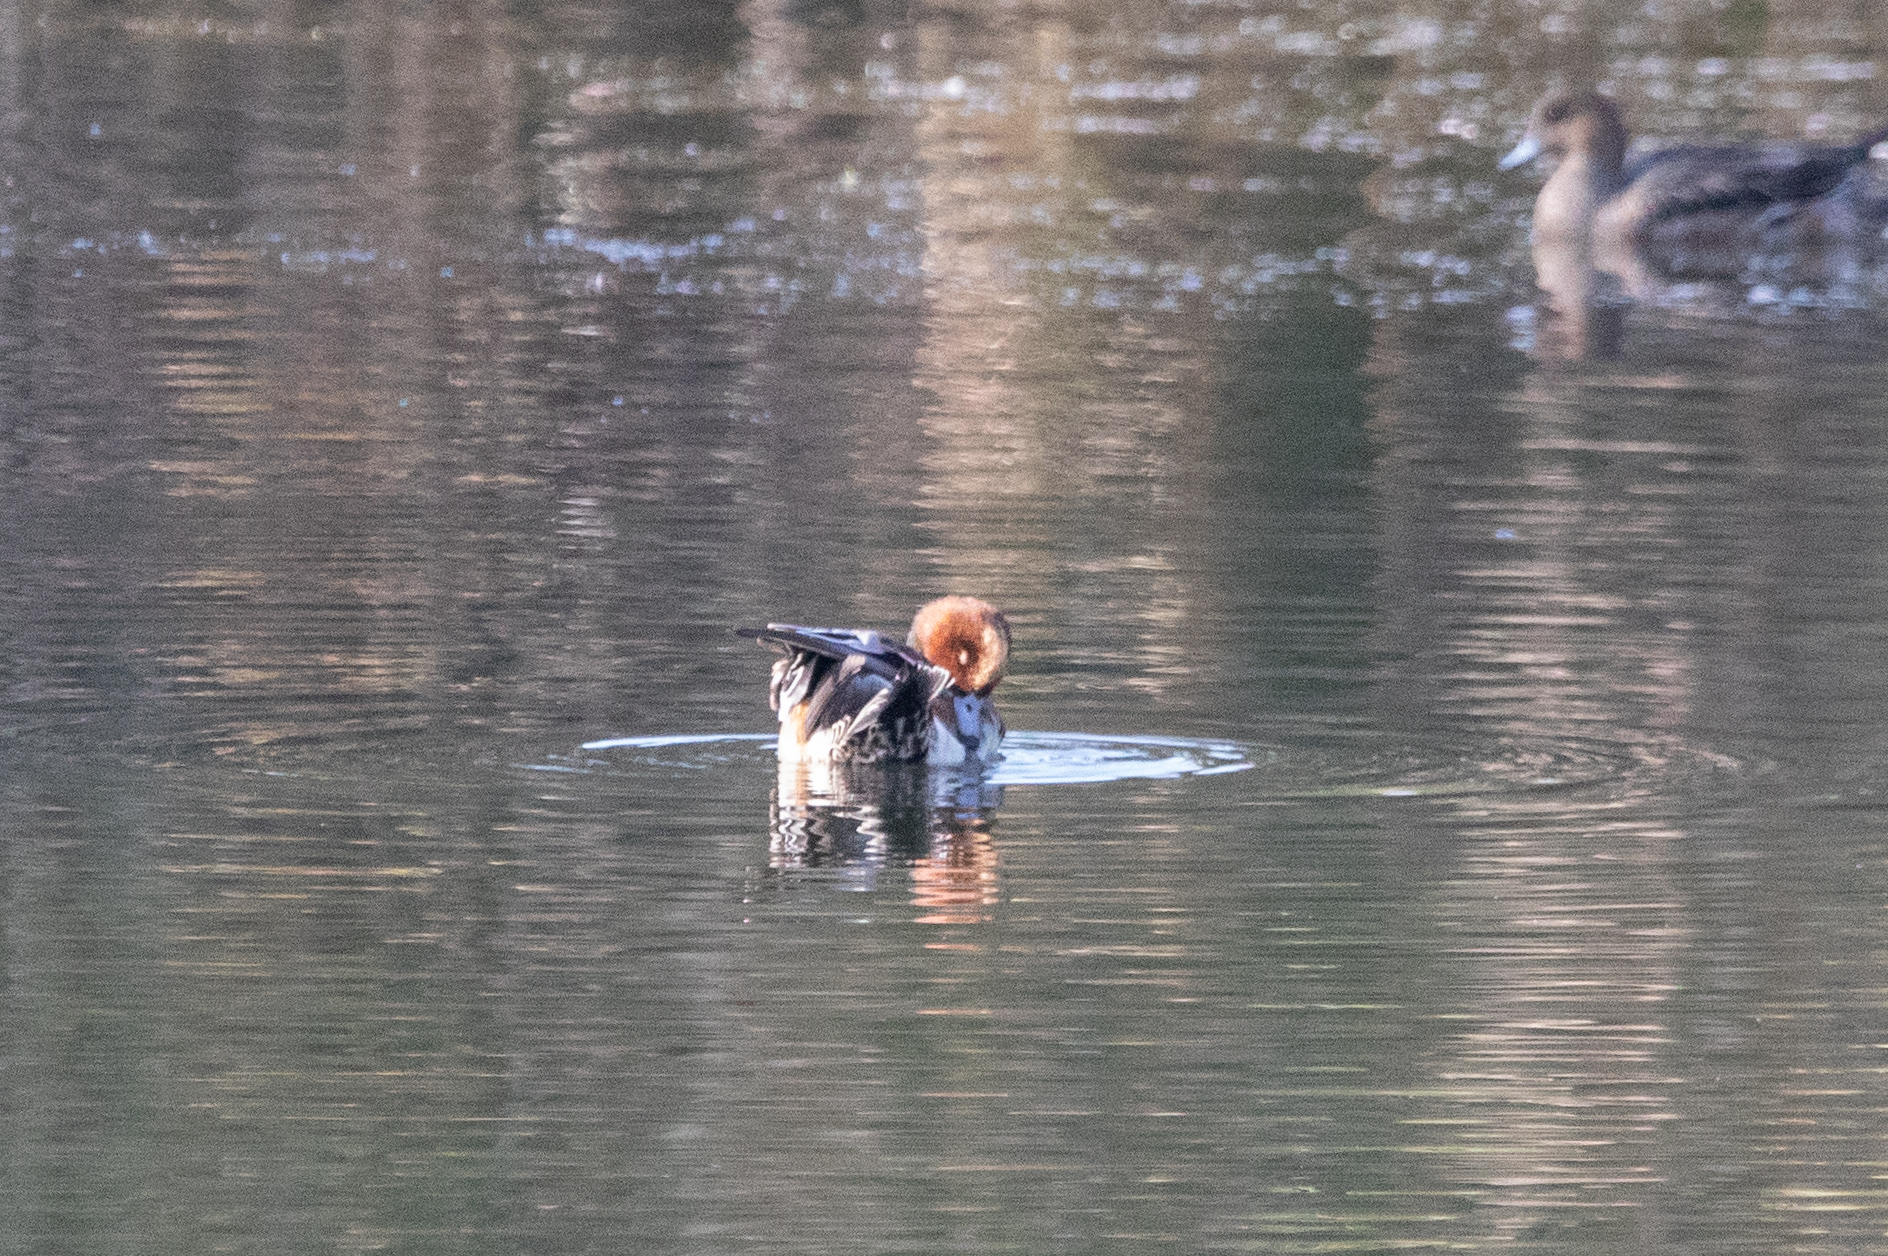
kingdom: Animalia
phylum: Chordata
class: Aves
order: Anseriformes
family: Anatidae
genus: Mareca
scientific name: Mareca penelope
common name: Eurasian wigeon
